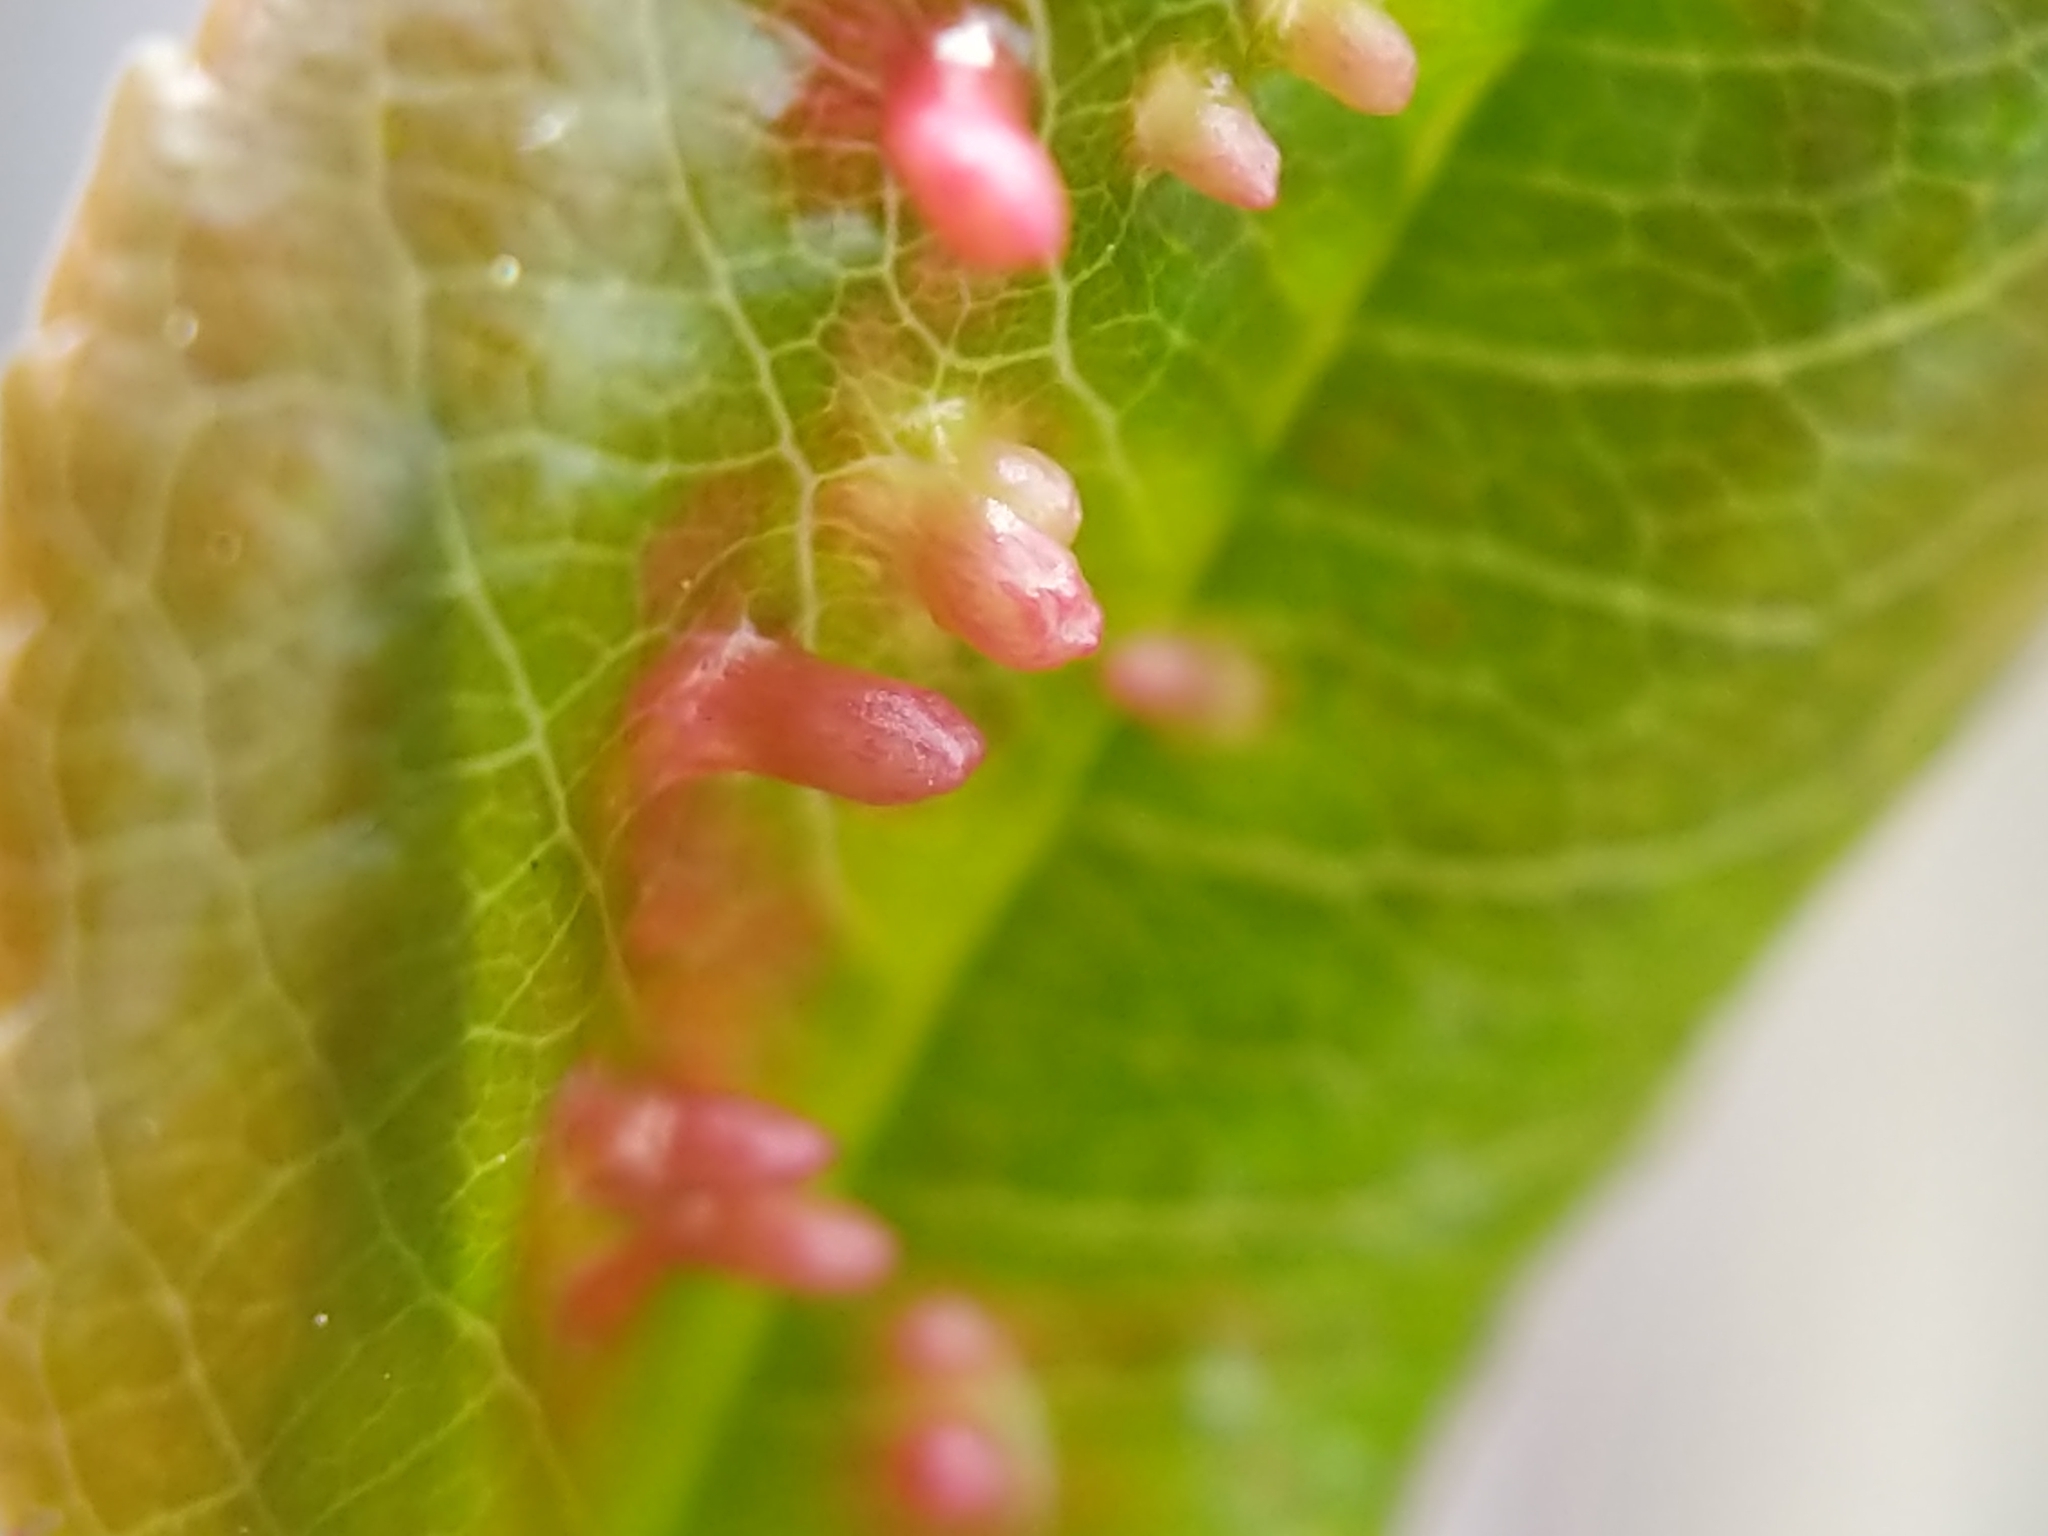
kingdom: Animalia
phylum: Arthropoda
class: Arachnida
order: Trombidiformes
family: Eriophyidae
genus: Eriophyes
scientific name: Eriophyes
